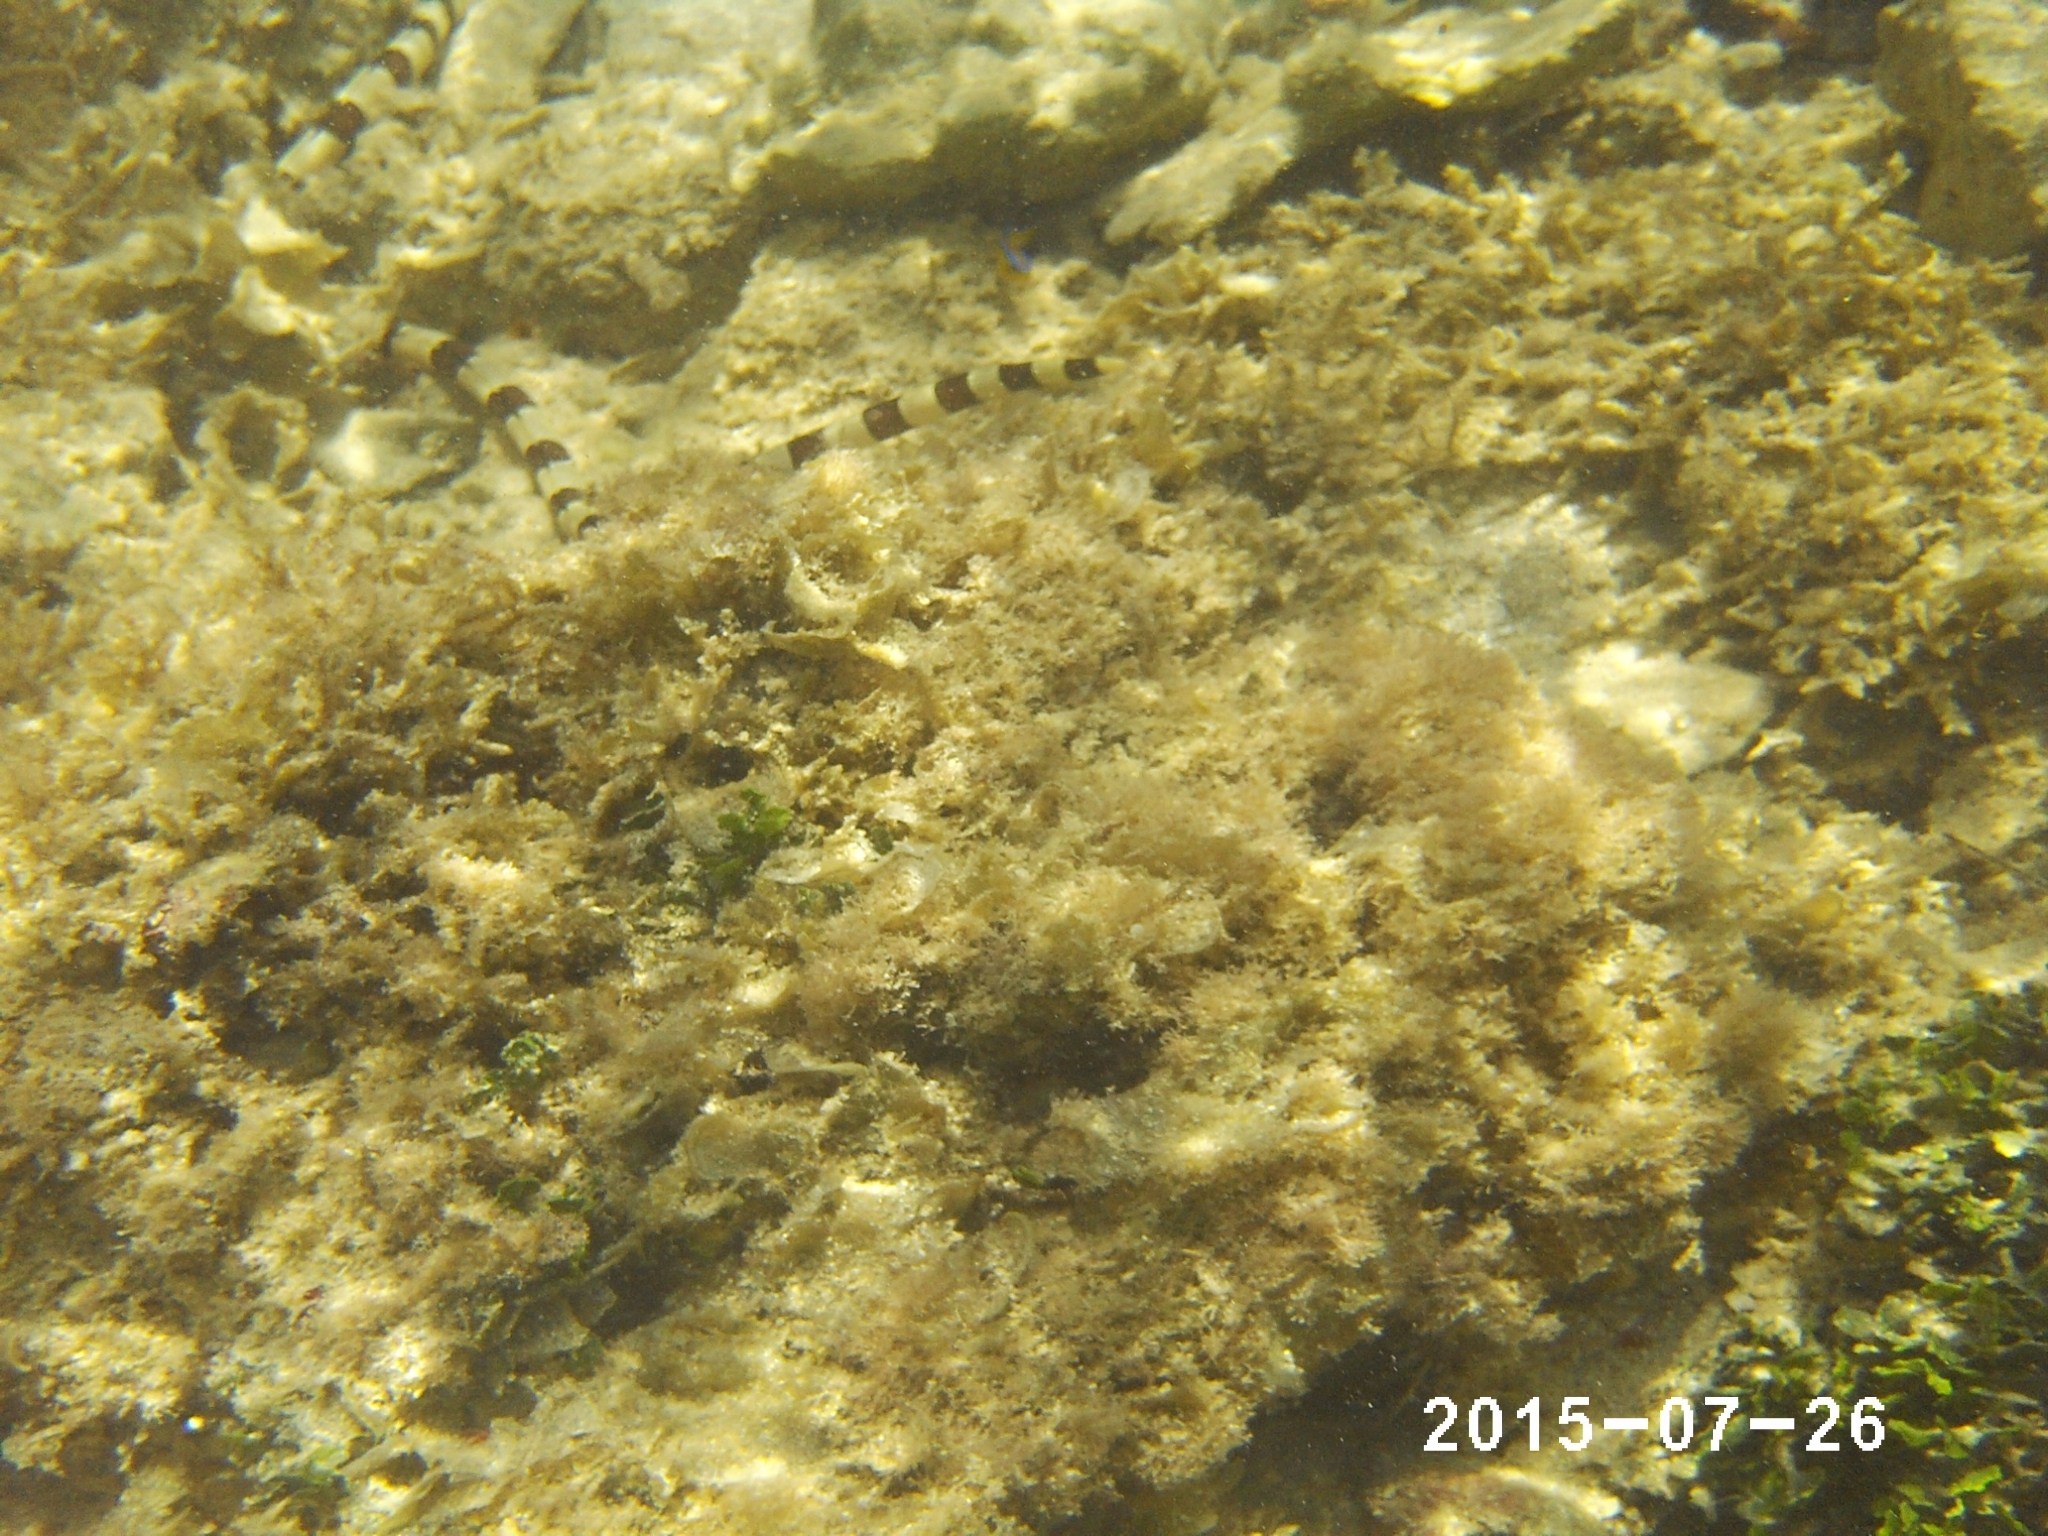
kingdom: Animalia
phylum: Chordata
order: Anguilliformes
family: Ophichthidae
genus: Myrichthys
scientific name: Myrichthys colubrinus
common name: Harlequin snake eel
